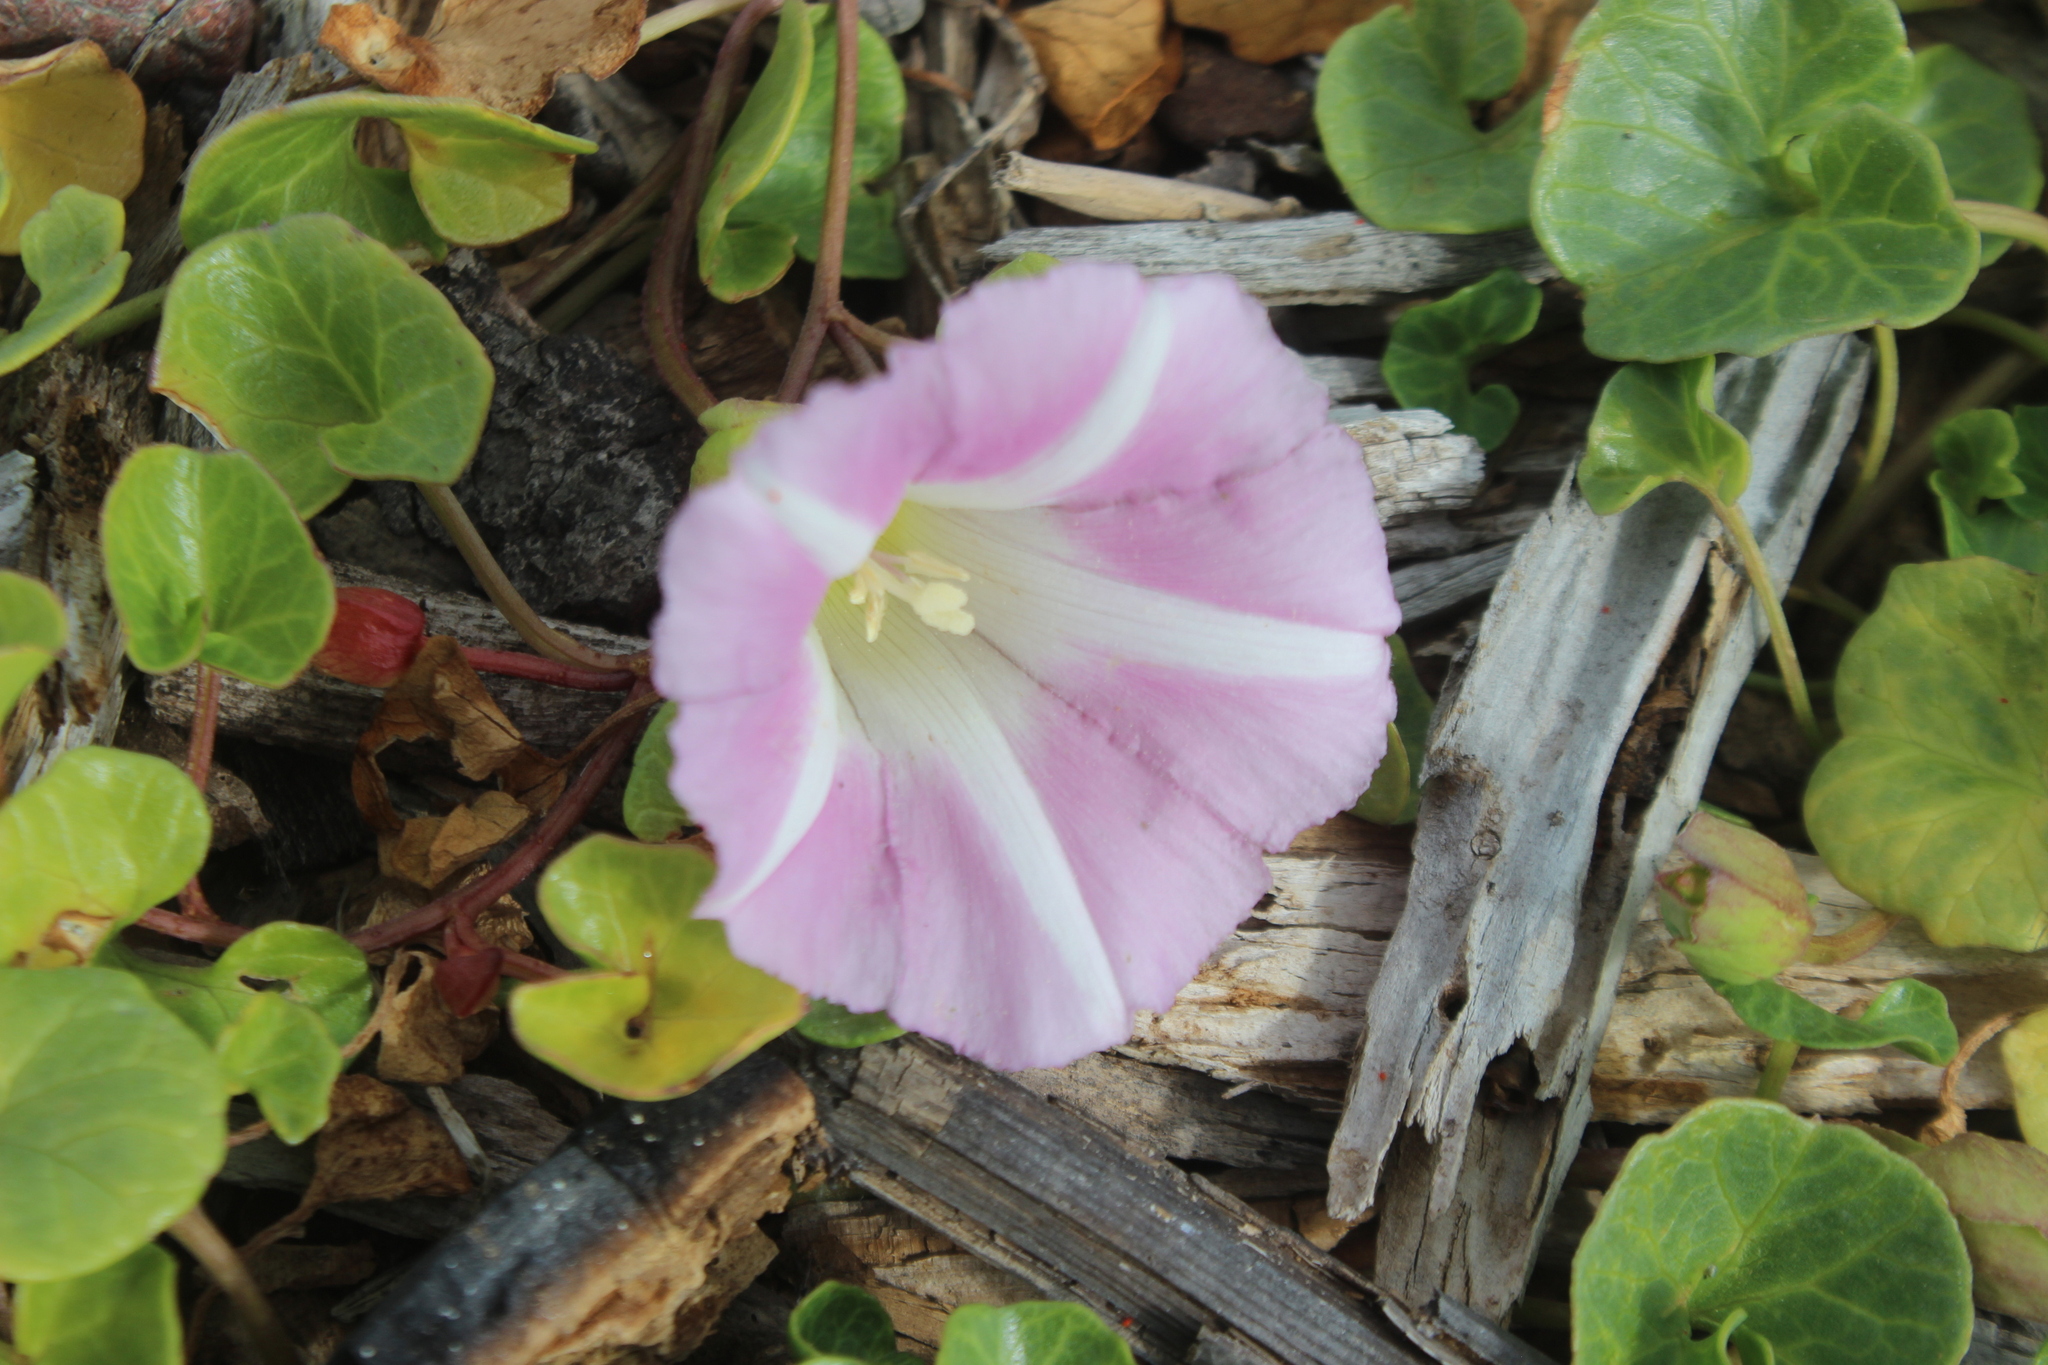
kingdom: Plantae
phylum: Tracheophyta
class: Magnoliopsida
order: Solanales
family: Convolvulaceae
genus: Calystegia
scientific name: Calystegia soldanella
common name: Sea bindweed
